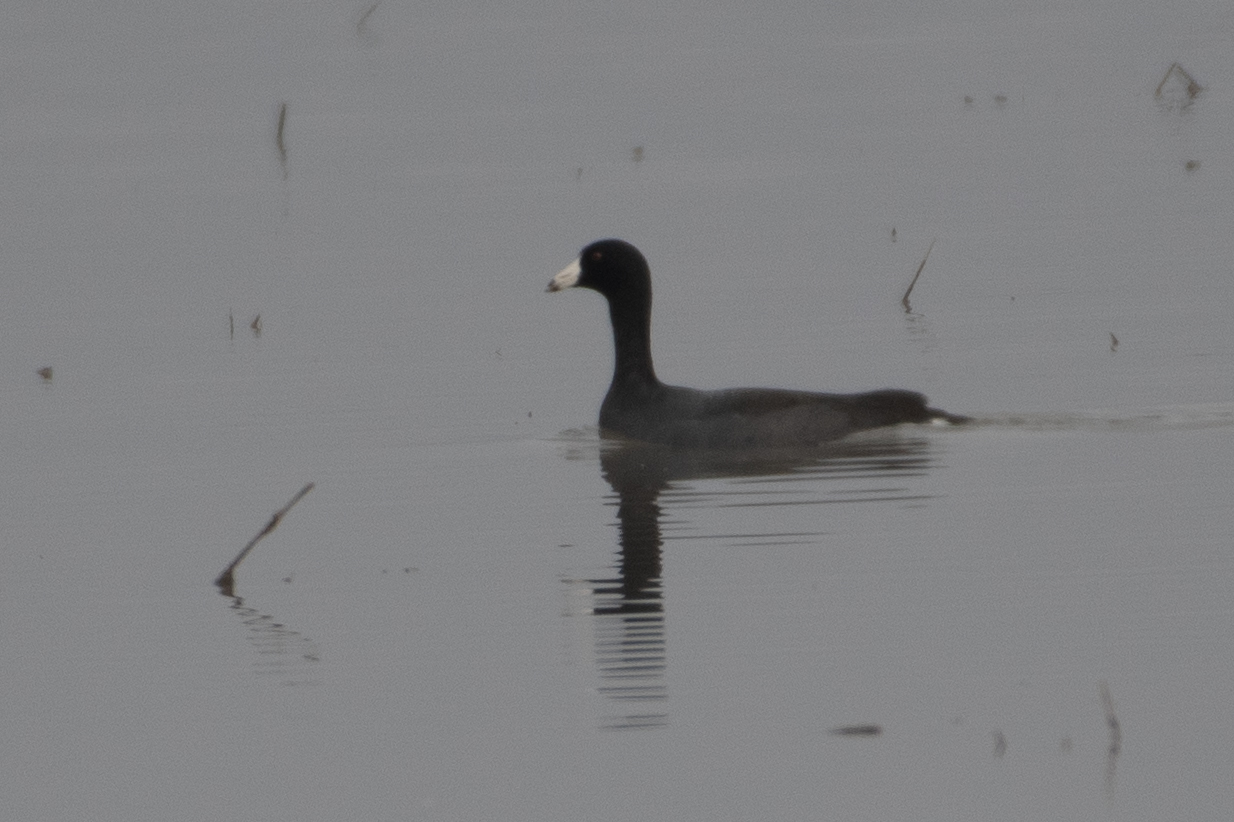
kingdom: Animalia
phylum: Chordata
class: Aves
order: Gruiformes
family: Rallidae
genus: Fulica
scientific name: Fulica americana
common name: American coot
